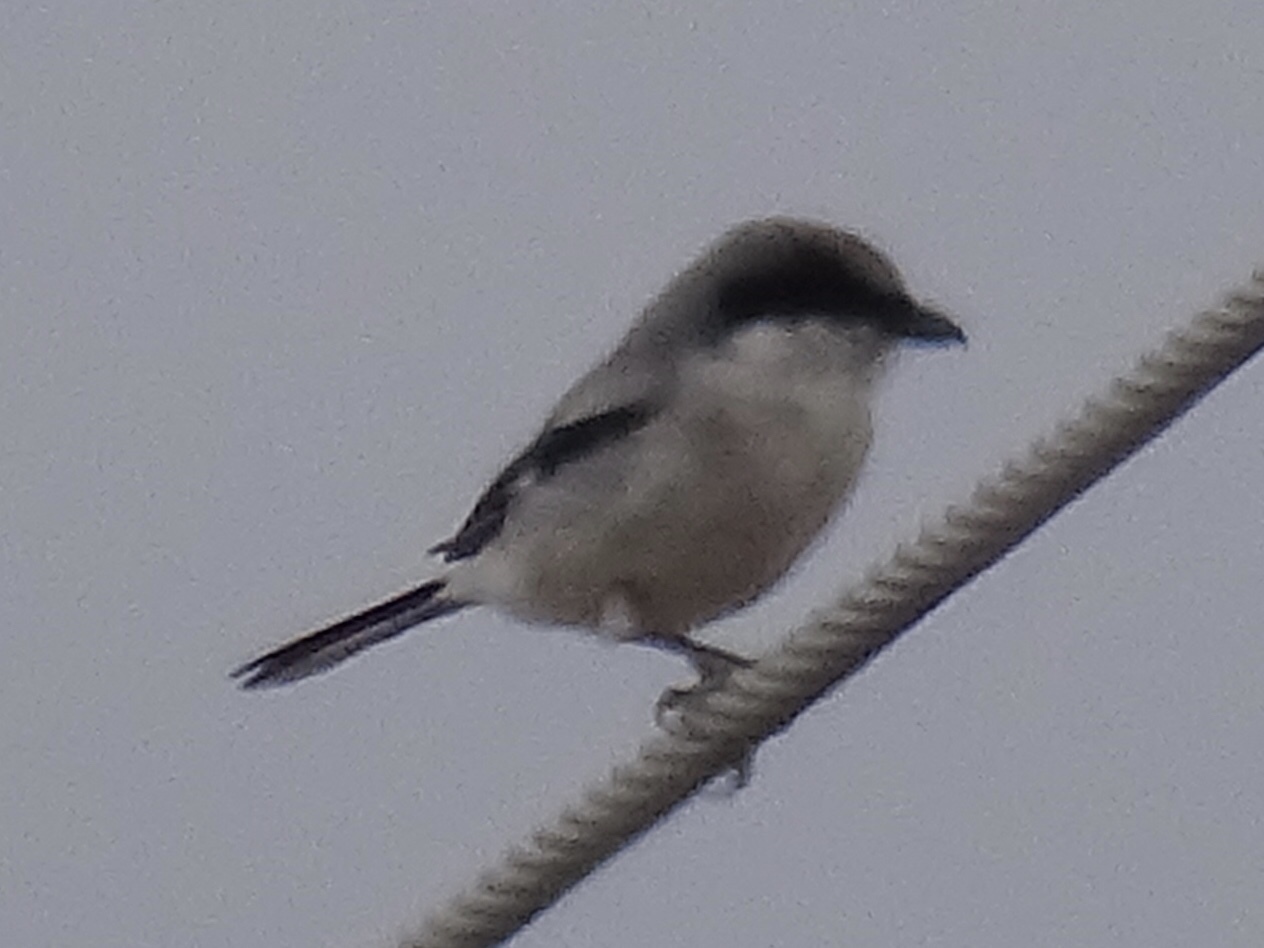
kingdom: Animalia
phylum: Chordata
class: Aves
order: Passeriformes
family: Laniidae
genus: Lanius
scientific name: Lanius ludovicianus
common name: Loggerhead shrike
